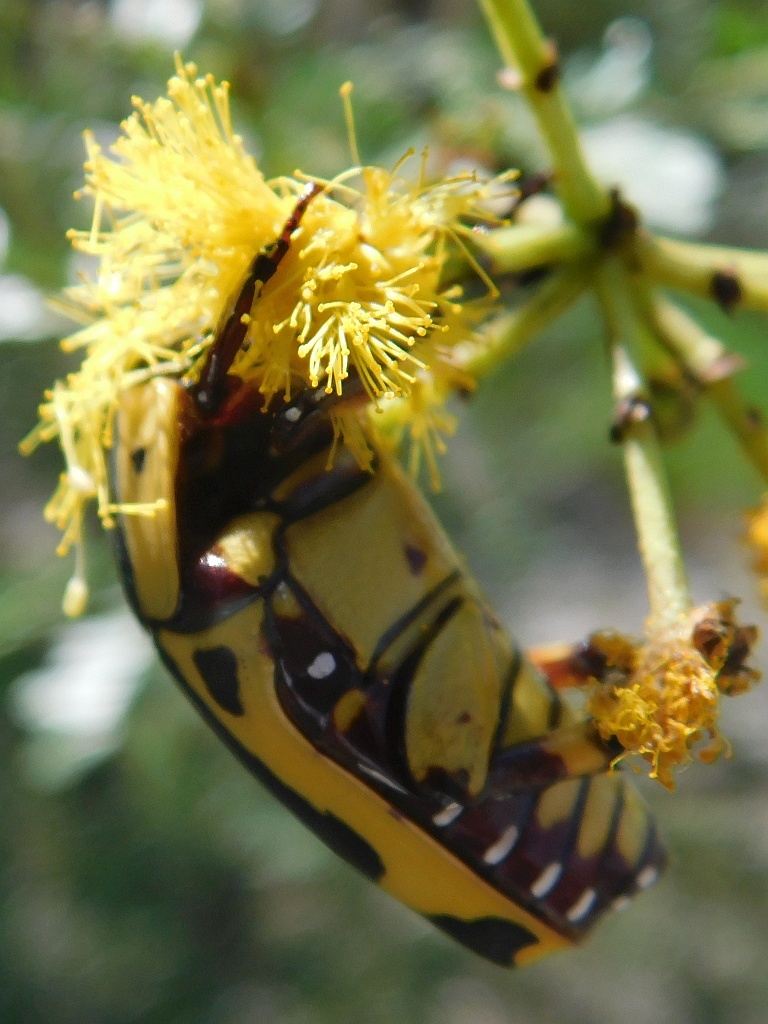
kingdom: Animalia
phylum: Arthropoda
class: Insecta
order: Coleoptera
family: Scarabaeidae
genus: Pachnoda
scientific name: Pachnoda sinuata
